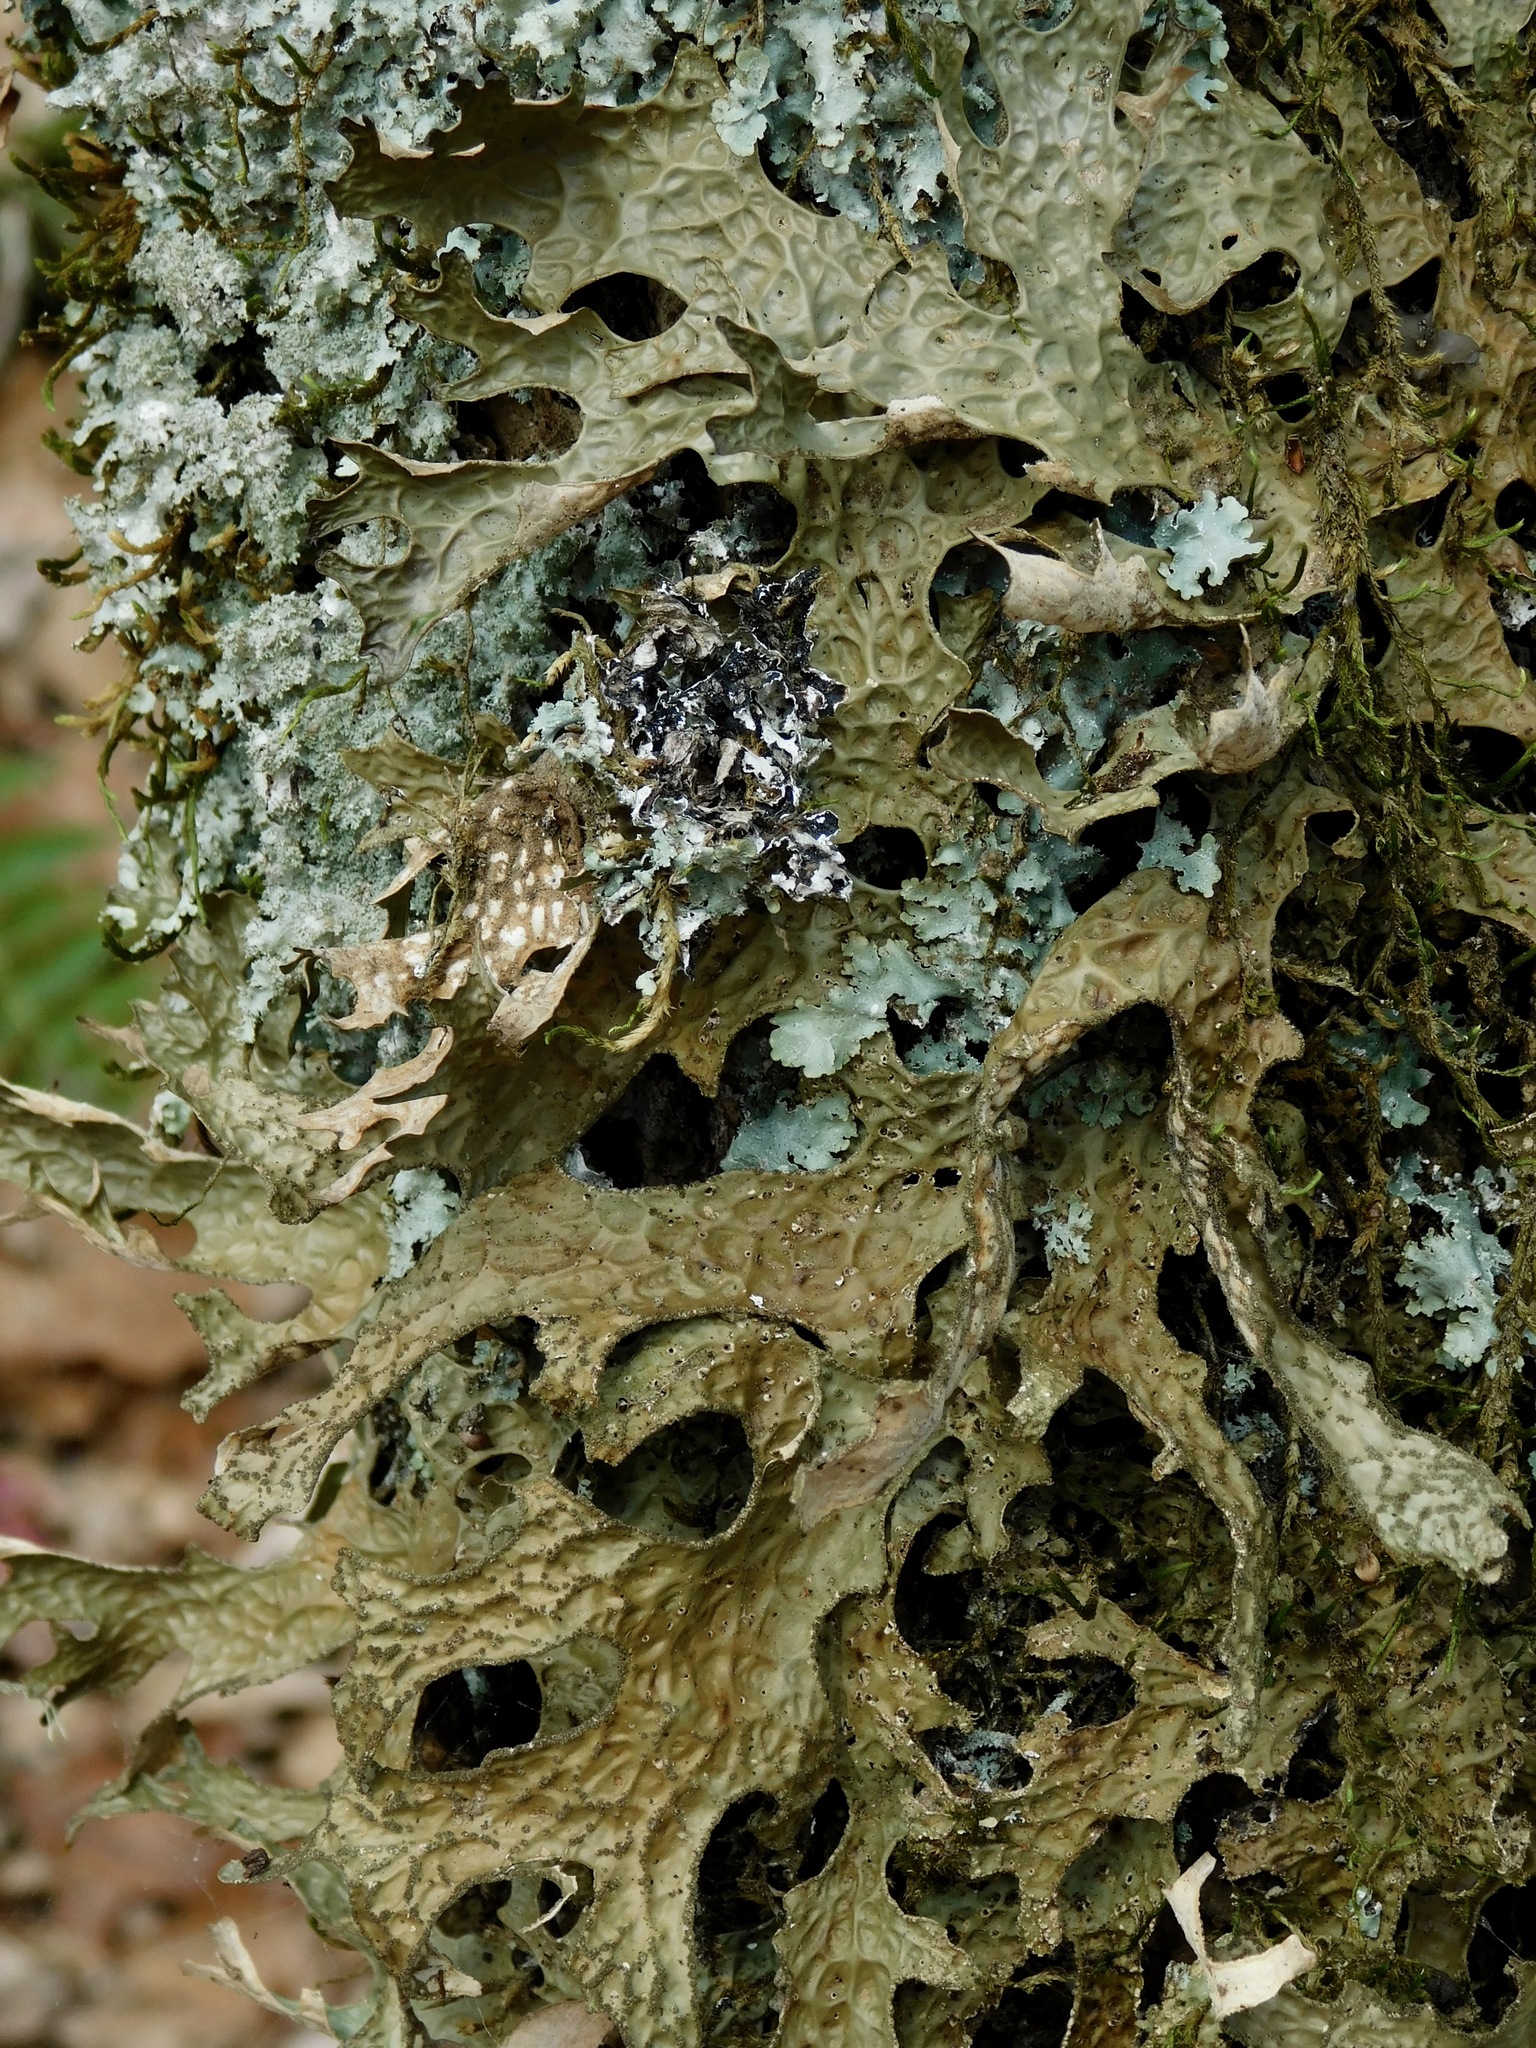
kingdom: Fungi
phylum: Ascomycota
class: Lecanoromycetes
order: Peltigerales
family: Lobariaceae
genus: Lobaria
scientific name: Lobaria pulmonaria
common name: Lungwort
